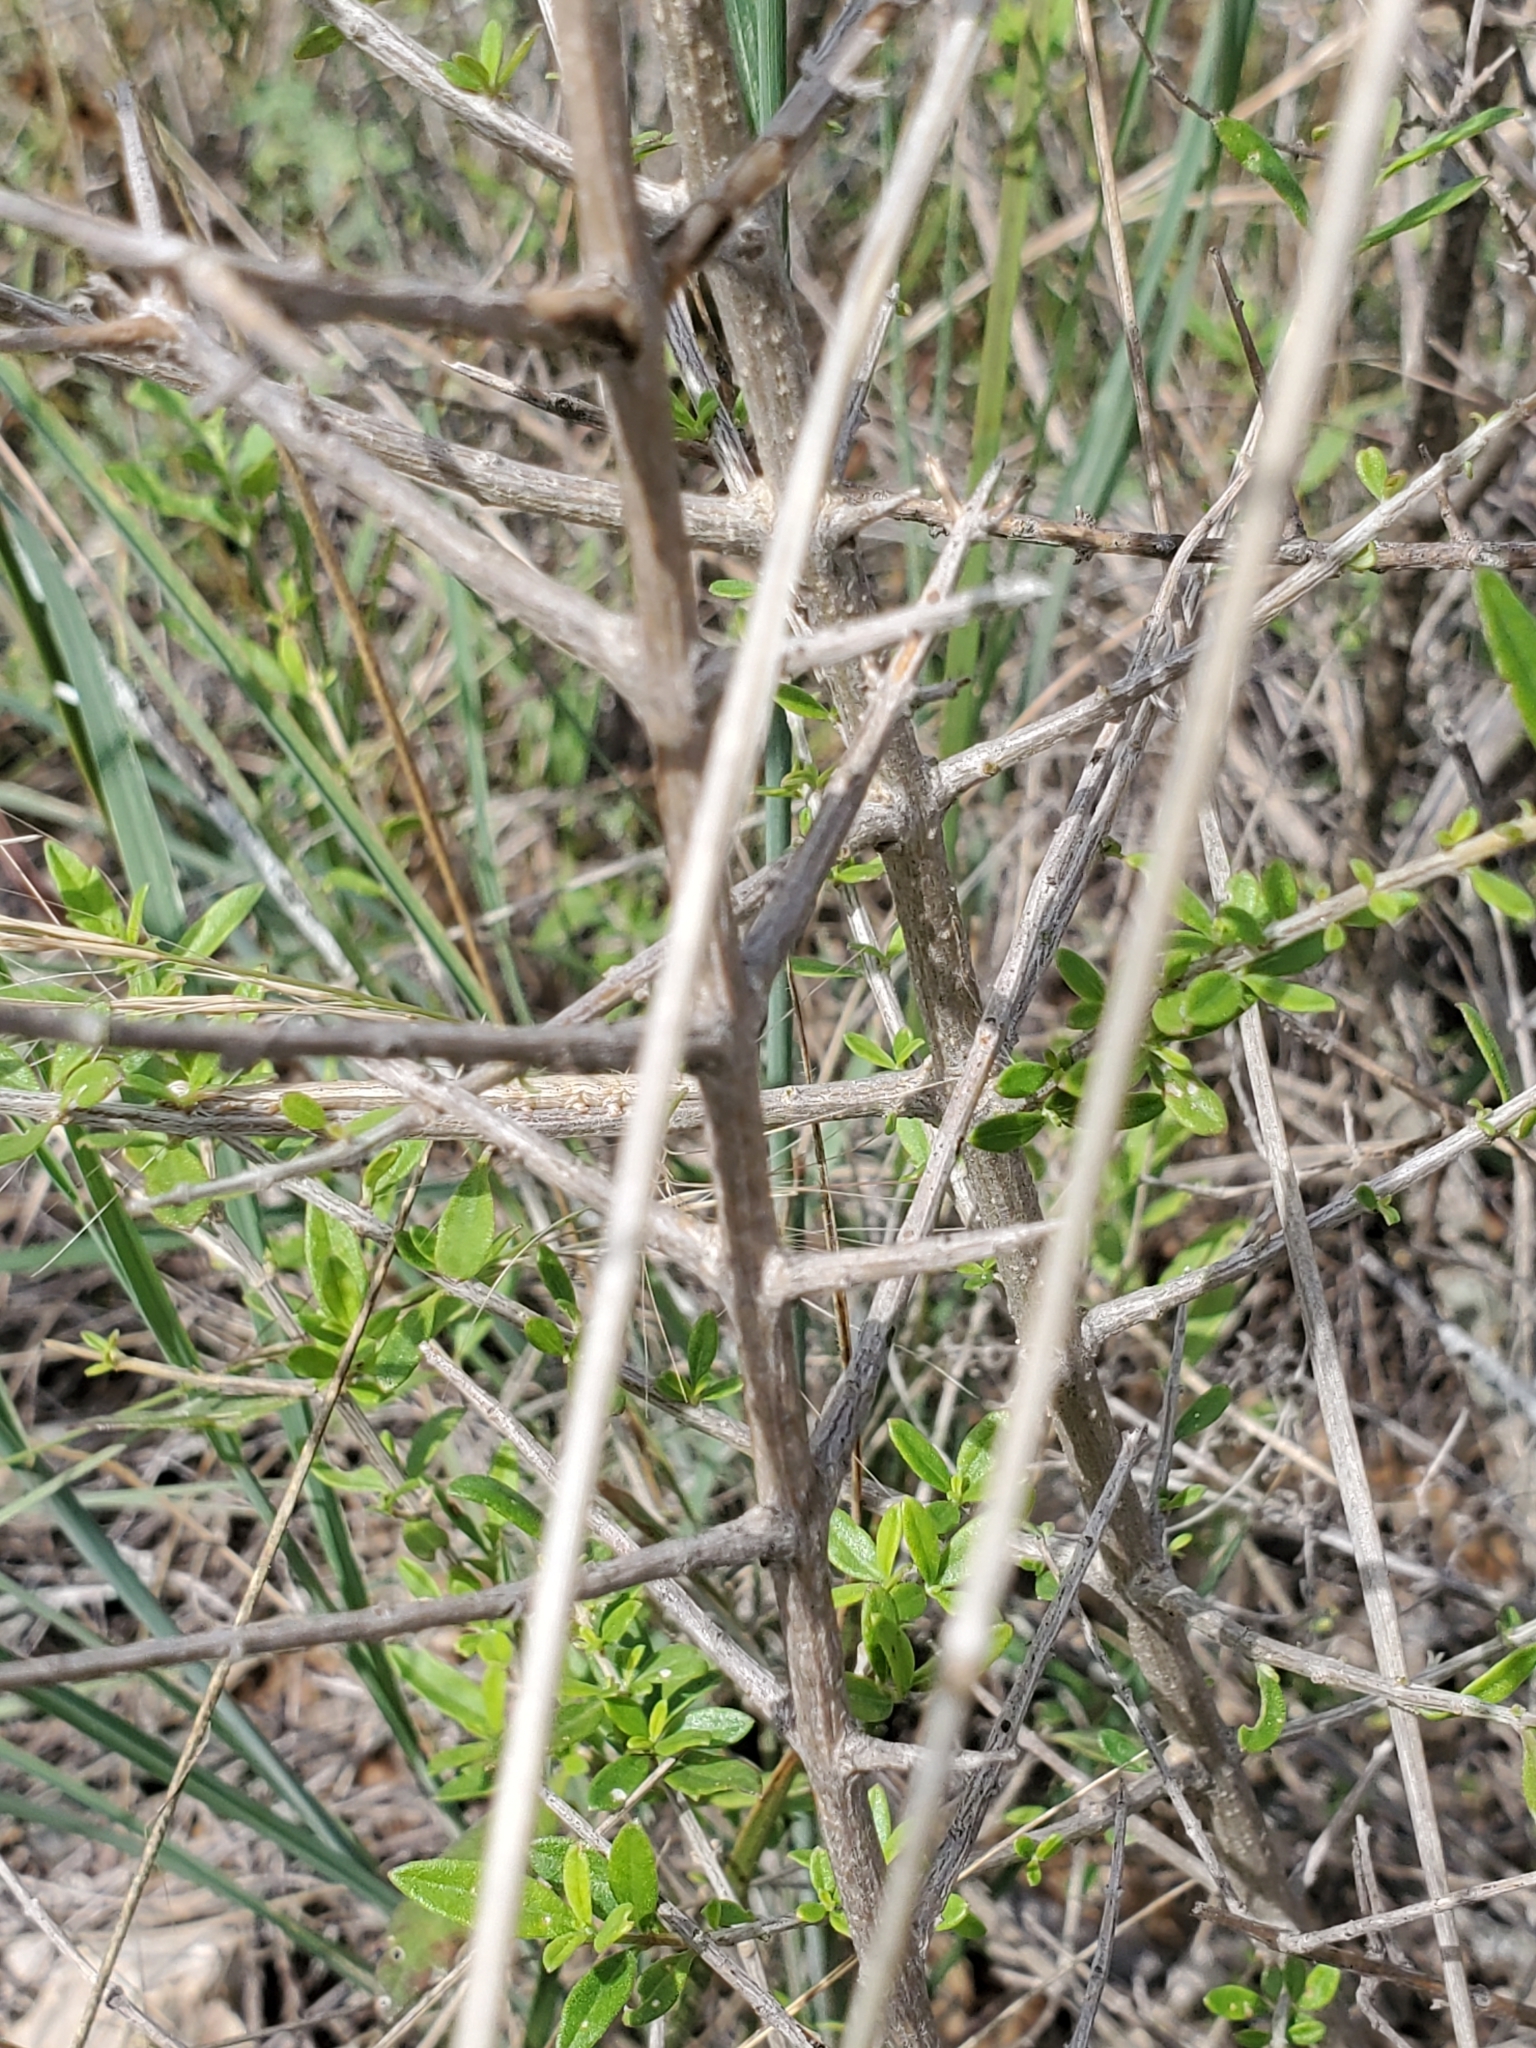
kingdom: Plantae
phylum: Tracheophyta
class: Magnoliopsida
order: Lamiales
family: Verbenaceae
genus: Aloysia
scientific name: Aloysia gratissima
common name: Common bee-brush
